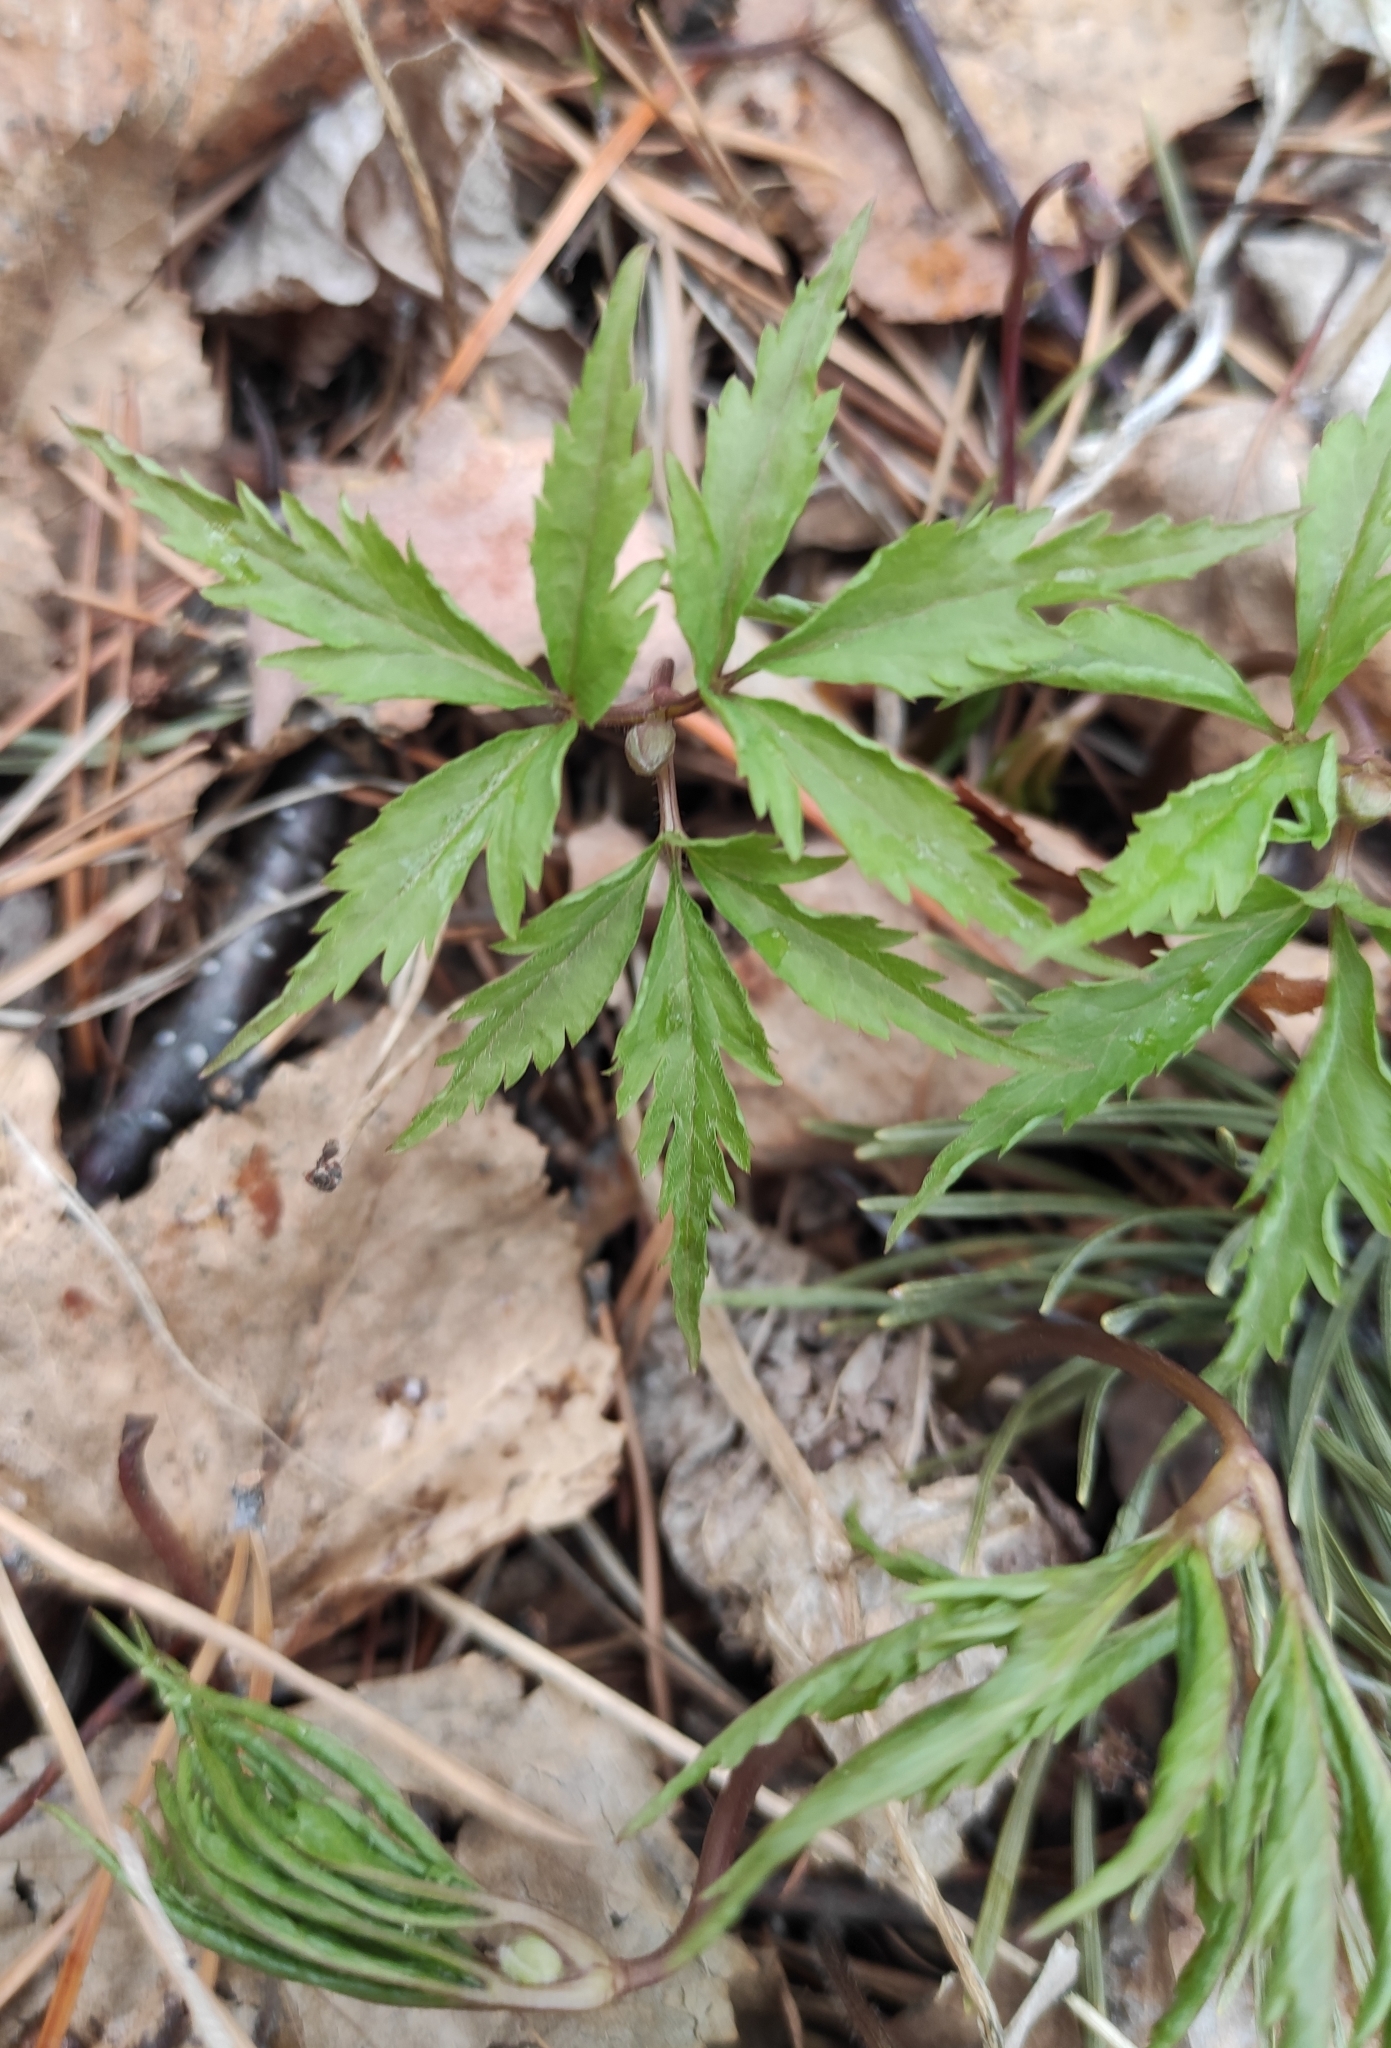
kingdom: Plantae
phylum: Tracheophyta
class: Magnoliopsida
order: Ranunculales
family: Ranunculaceae
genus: Anemone
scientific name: Anemone reflexa
